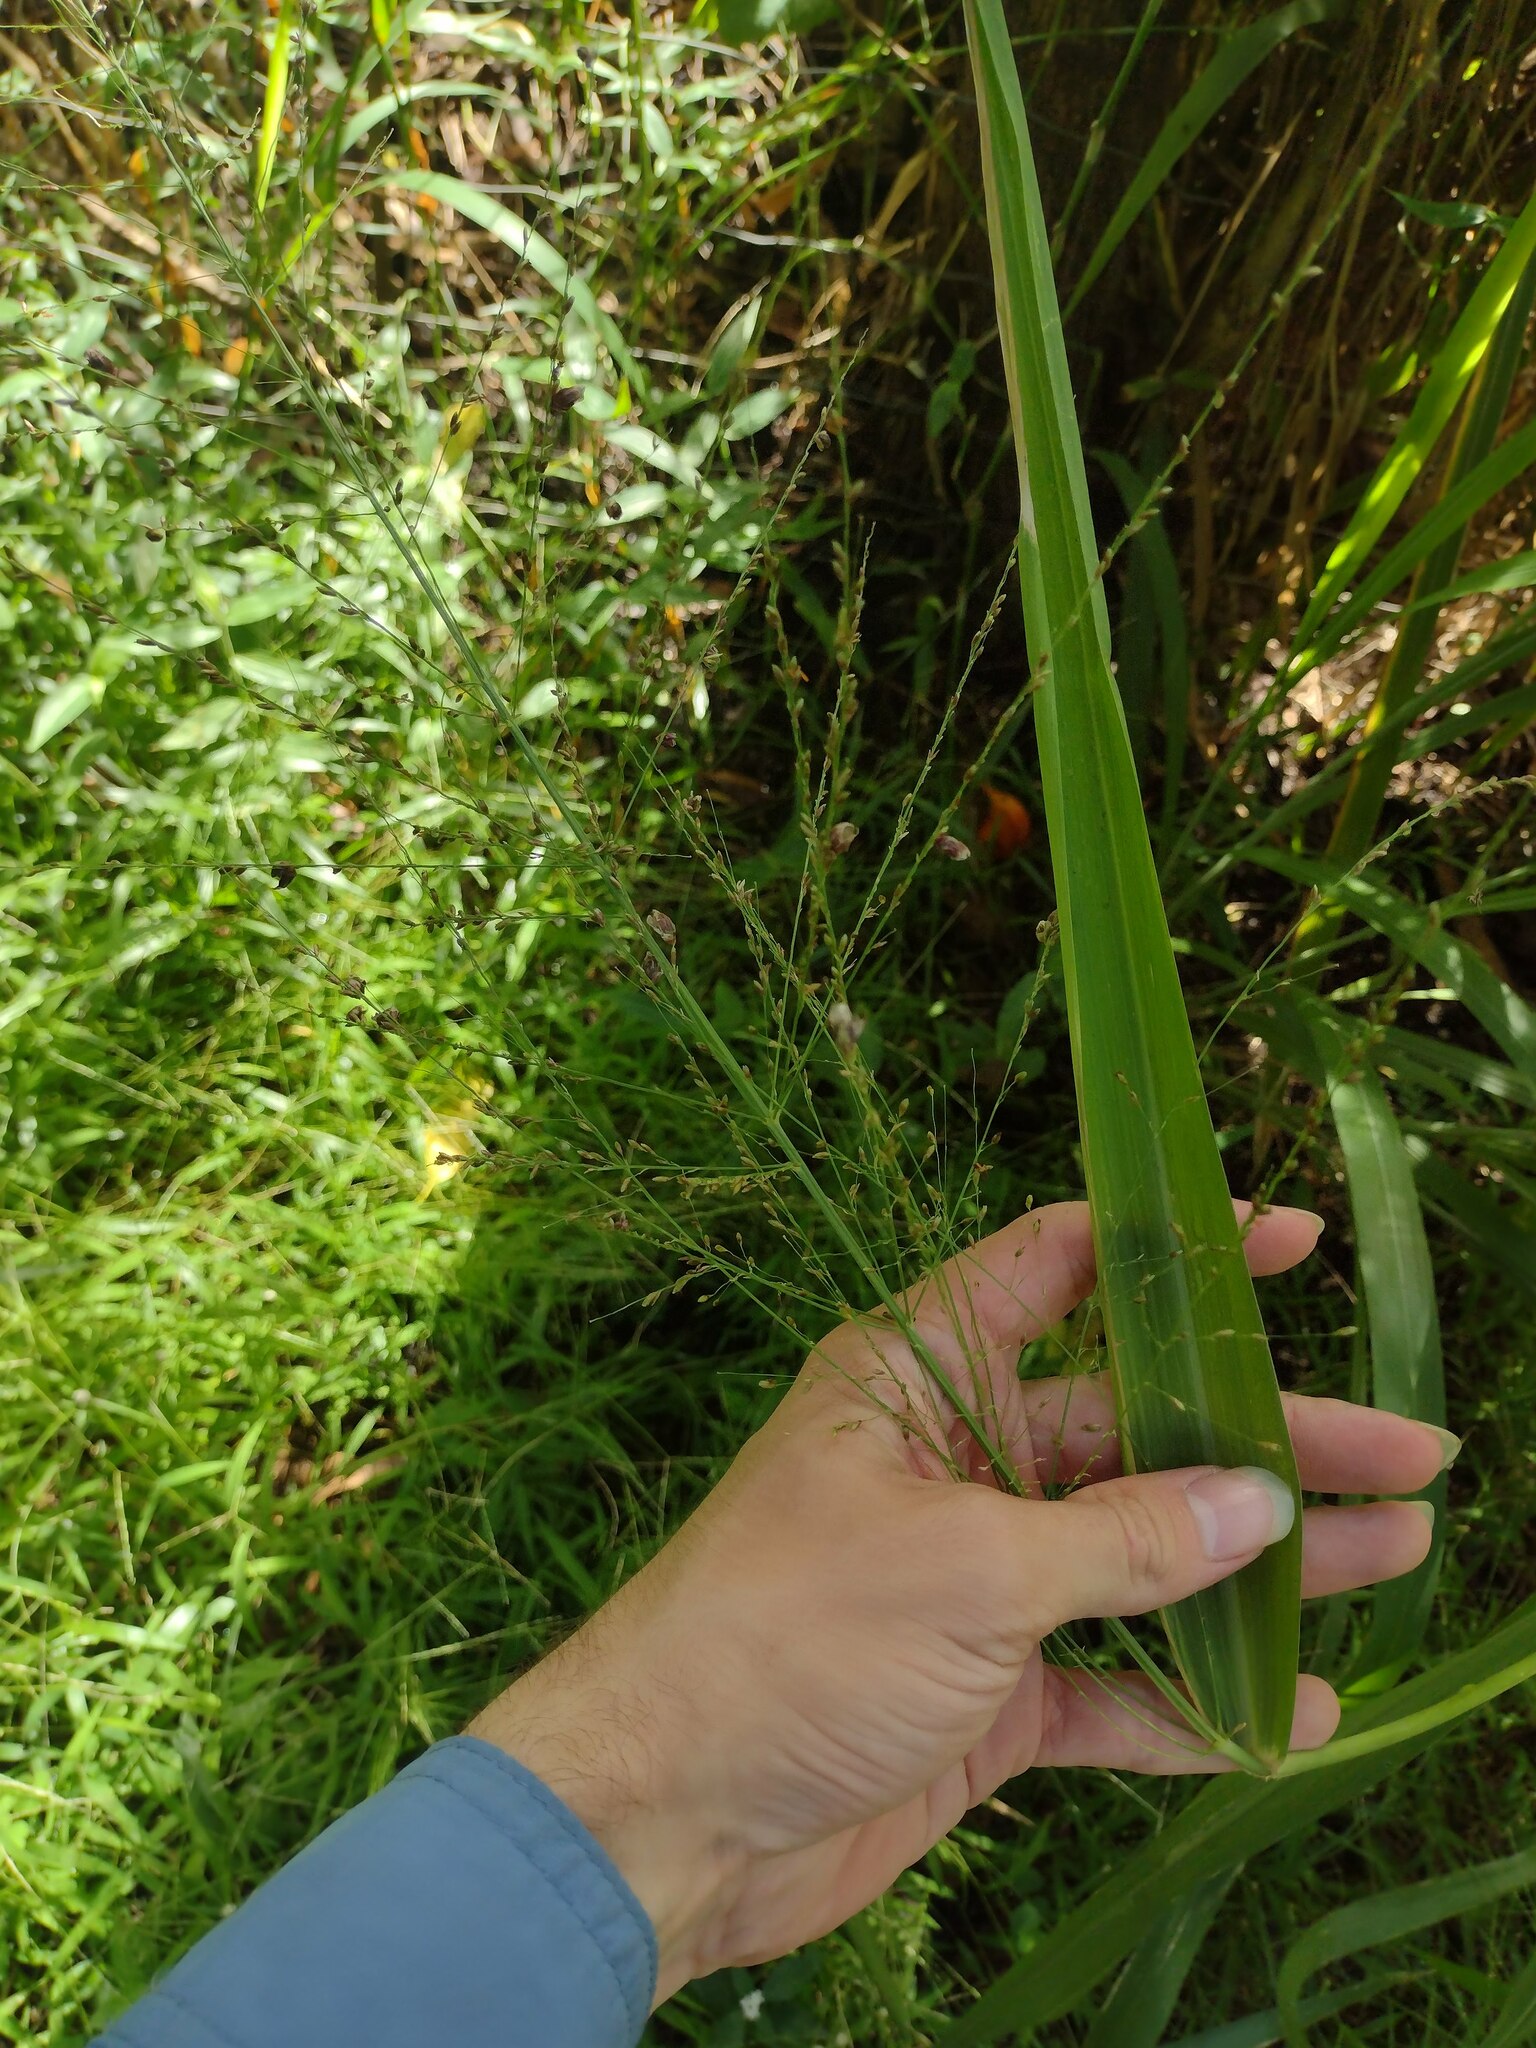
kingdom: Plantae
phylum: Tracheophyta
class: Liliopsida
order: Poales
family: Poaceae
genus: Megathyrsus
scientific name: Megathyrsus maximus
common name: Guineagrass
